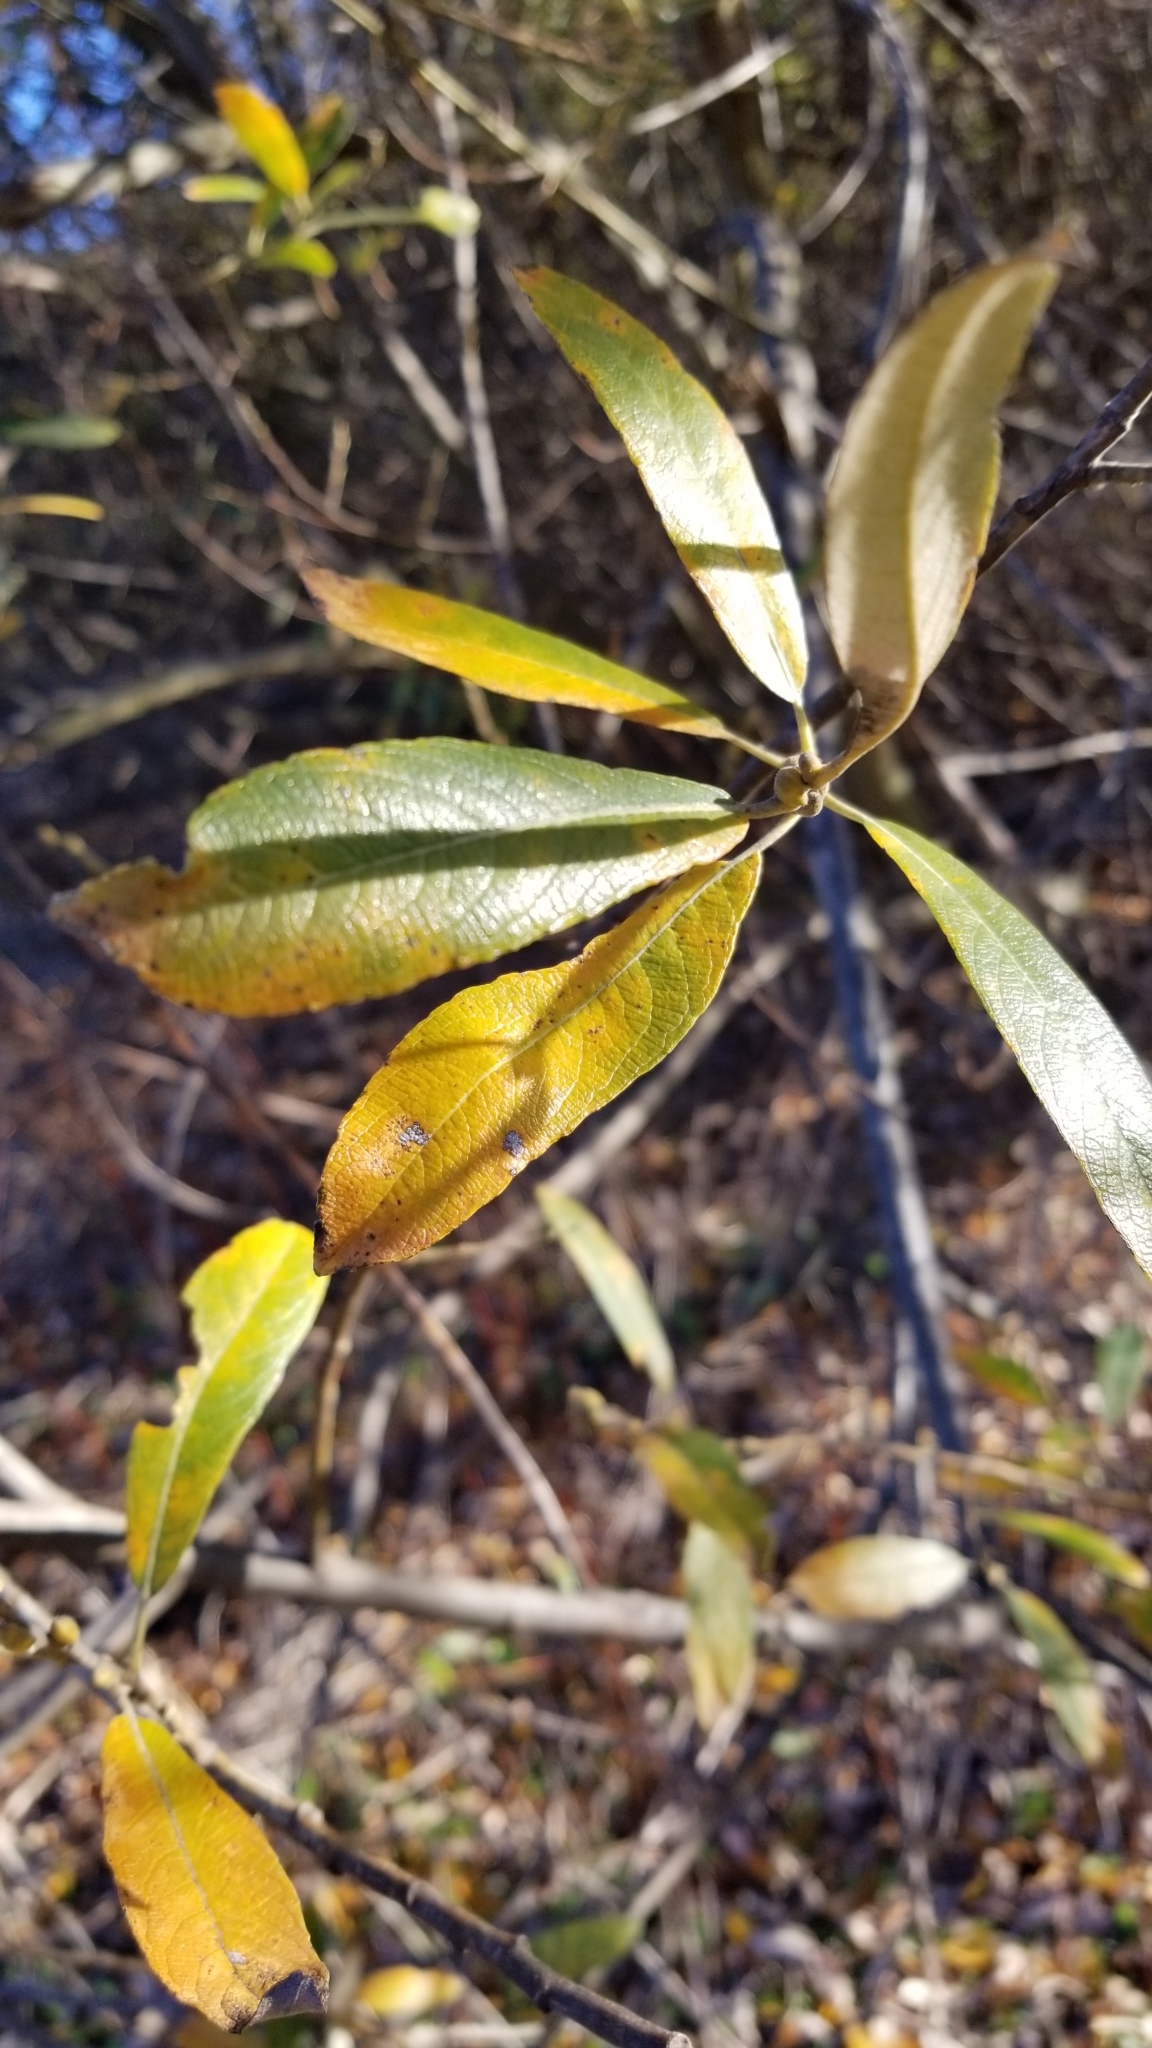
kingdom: Plantae
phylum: Tracheophyta
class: Magnoliopsida
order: Malpighiales
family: Salicaceae
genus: Salix
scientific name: Salix lasiolepis
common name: Arroyo willow
